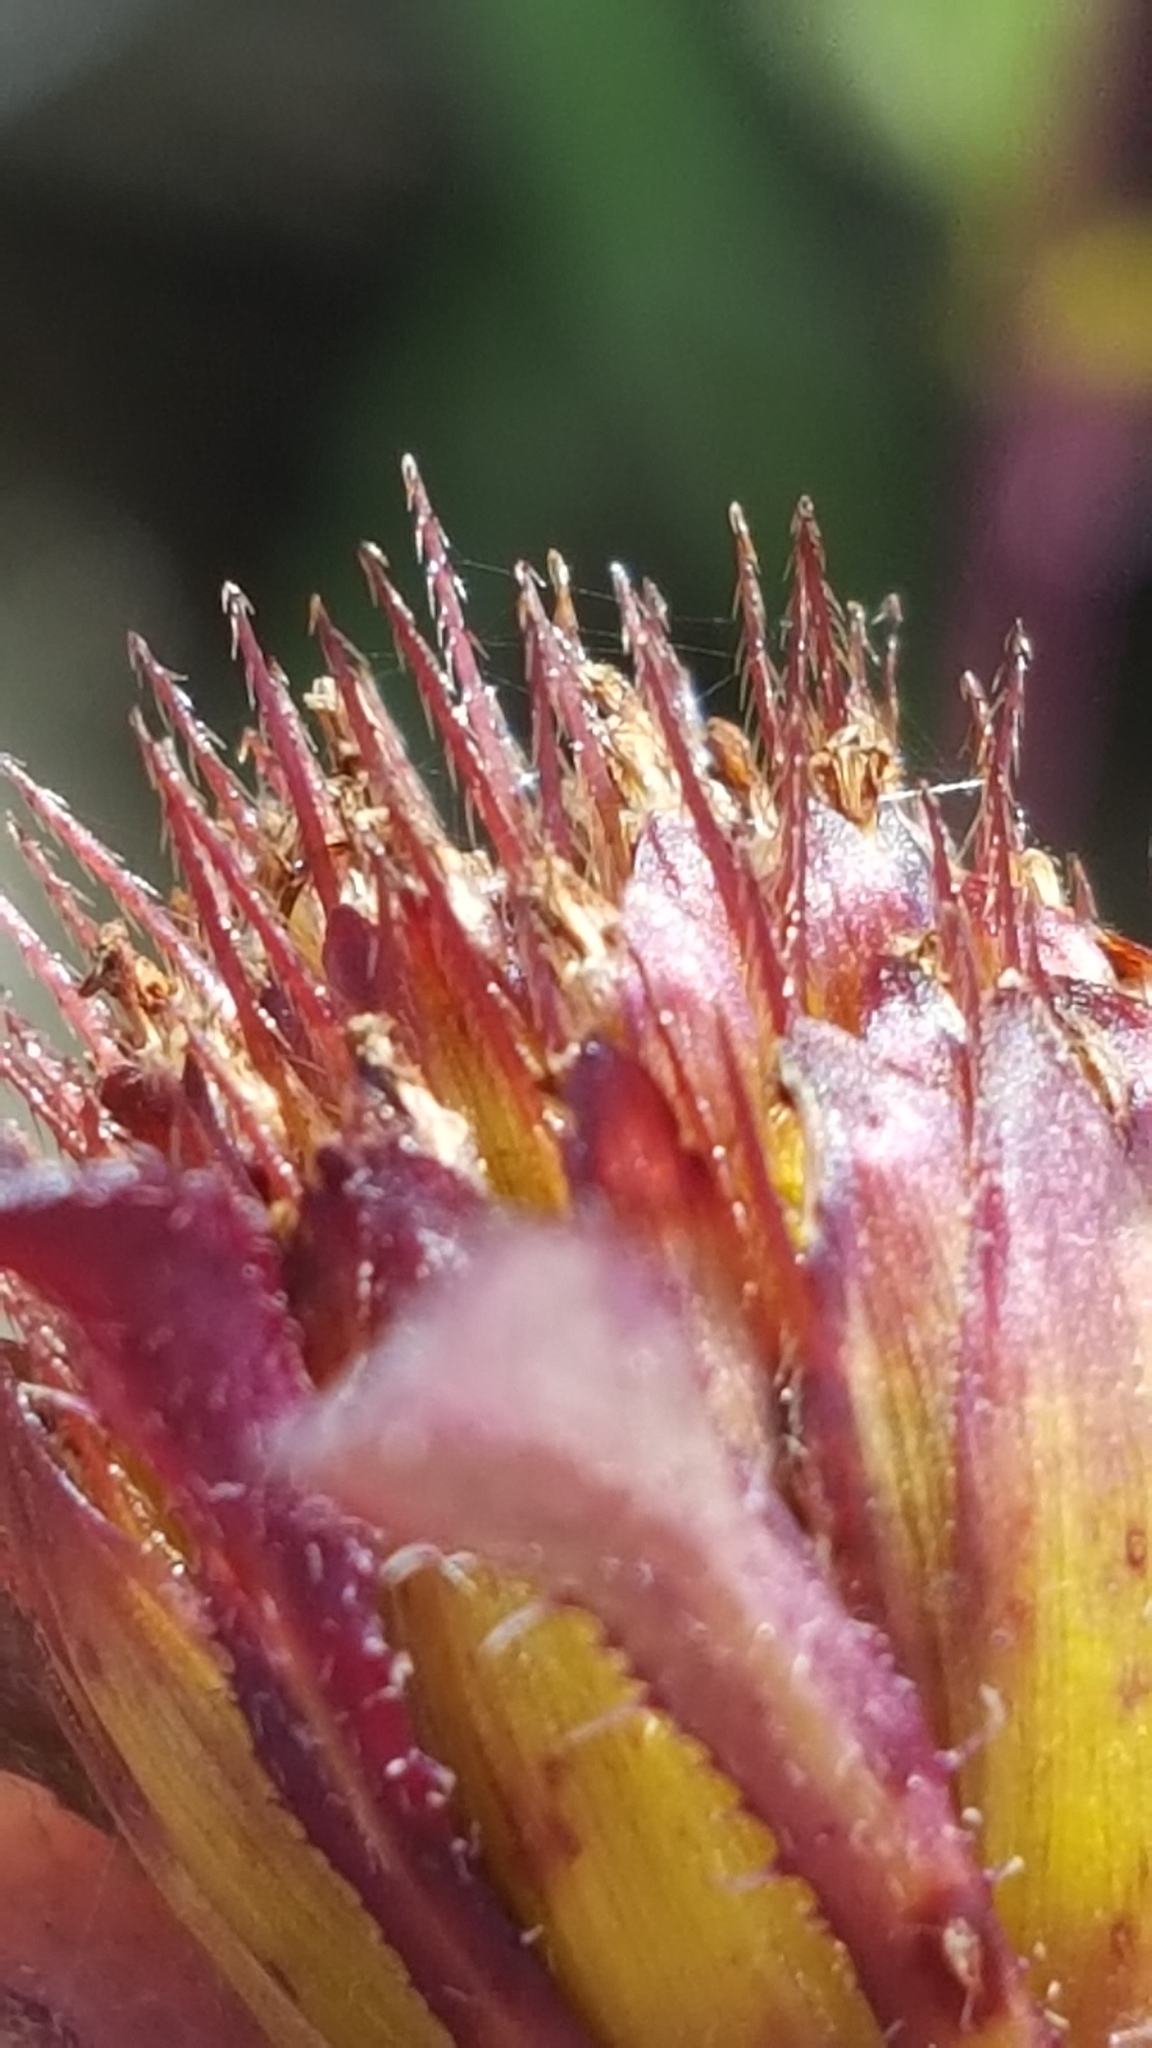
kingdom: Plantae
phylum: Tracheophyta
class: Magnoliopsida
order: Asterales
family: Asteraceae
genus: Bidens
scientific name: Bidens frondosa
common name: Beggarticks
